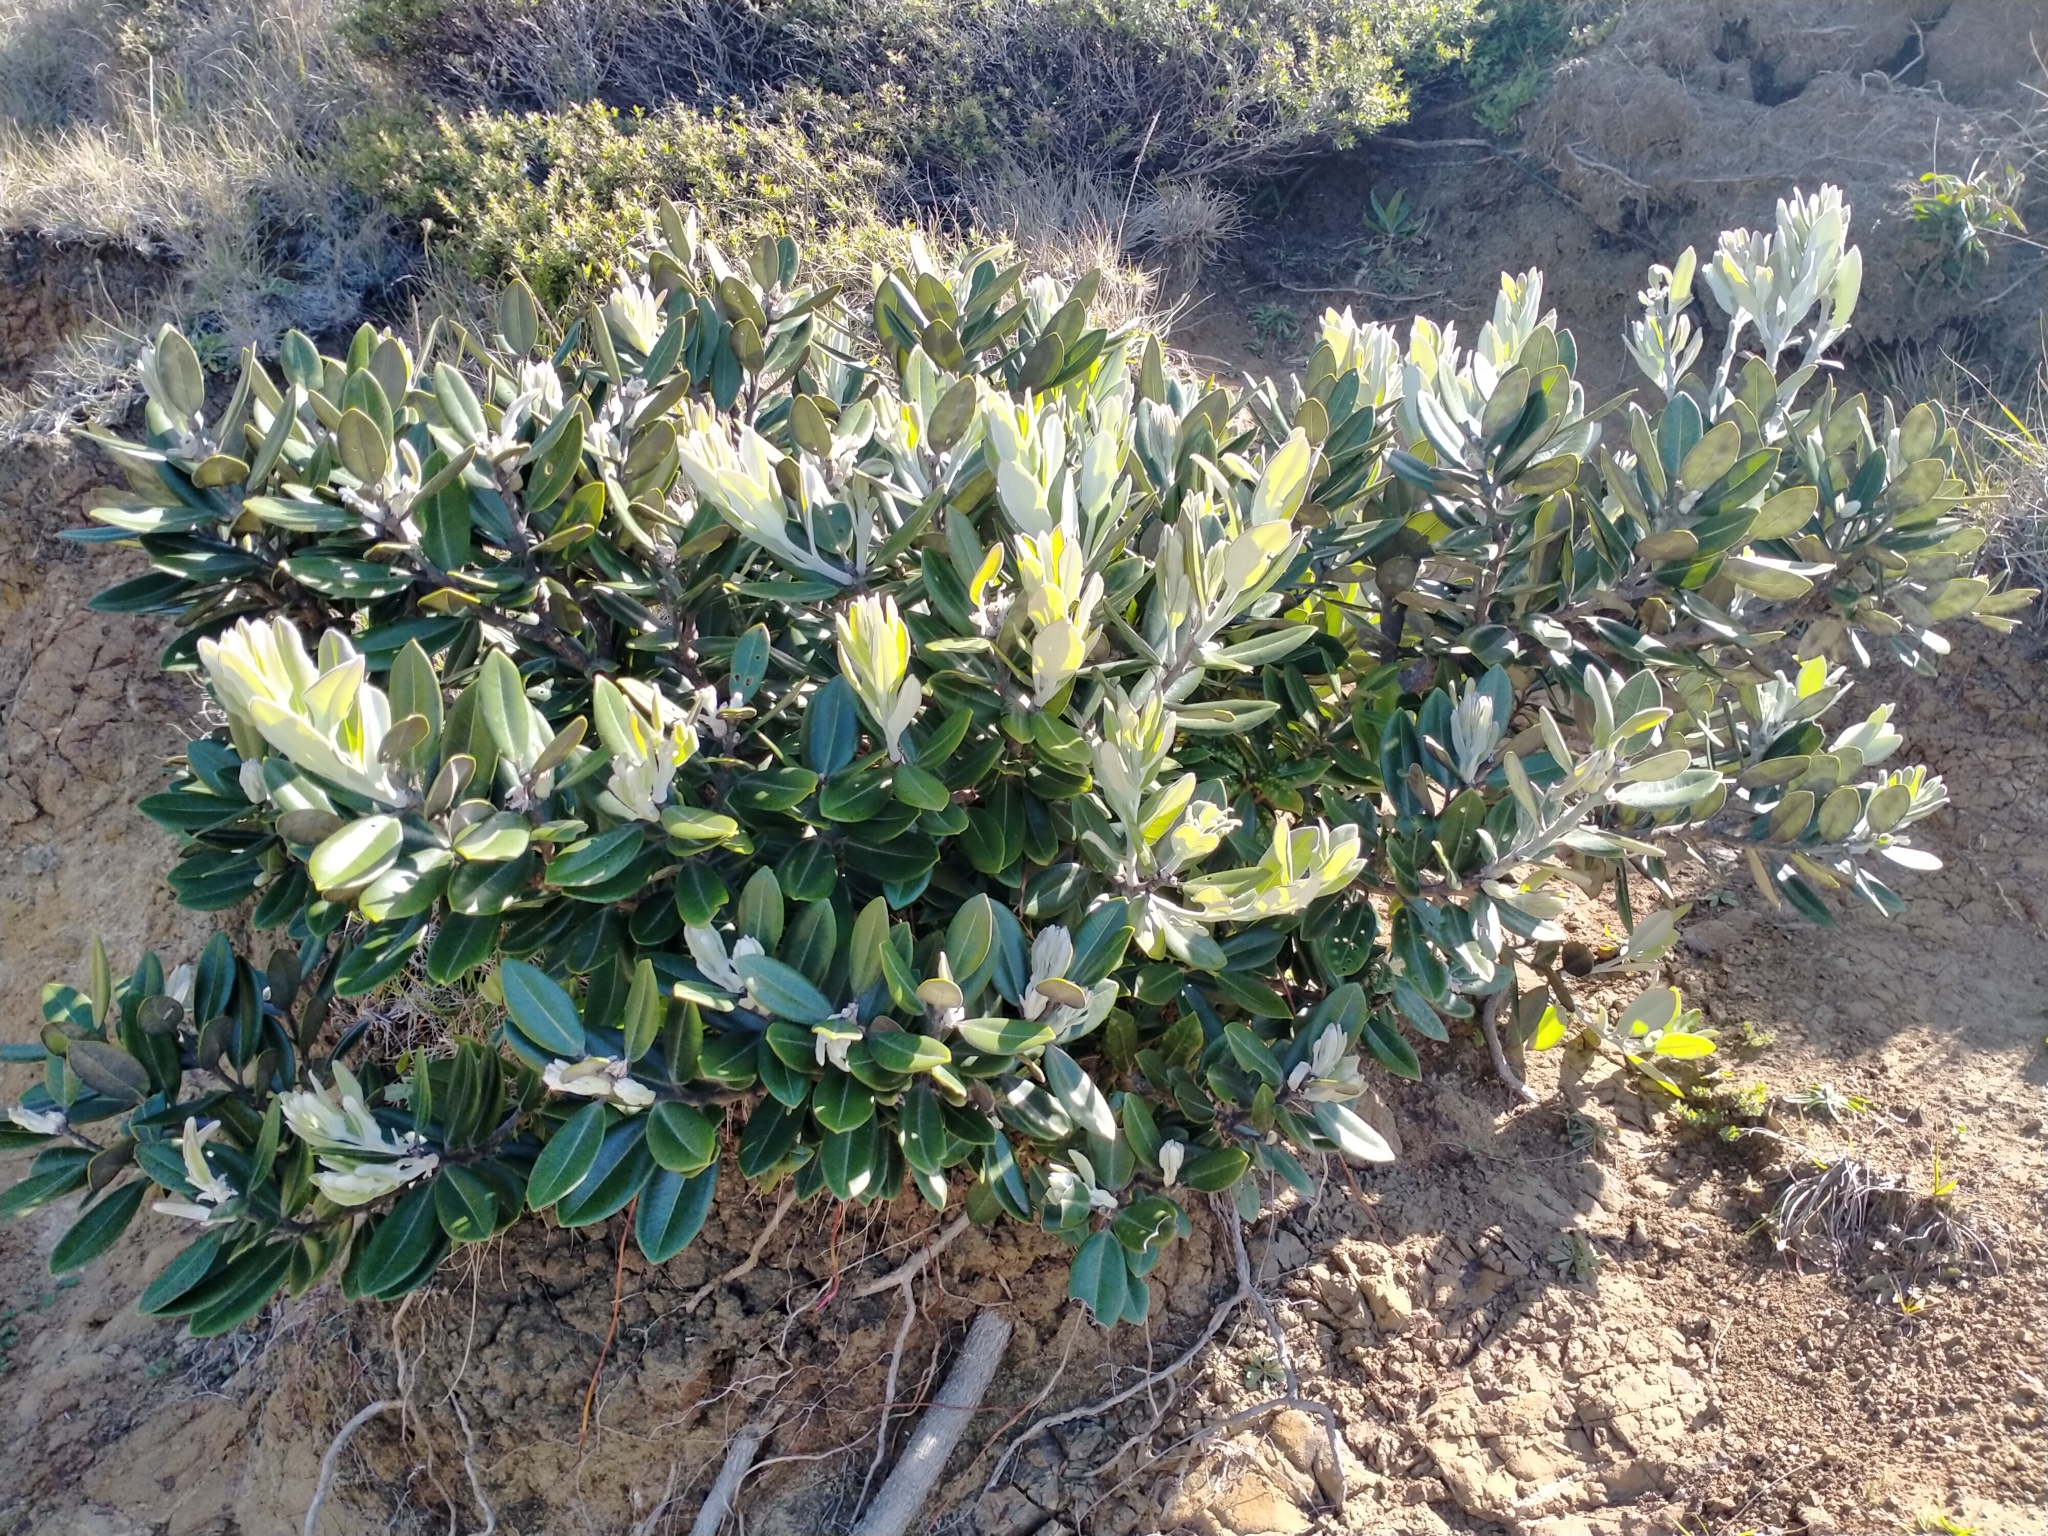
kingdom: Plantae
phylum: Tracheophyta
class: Magnoliopsida
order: Myrtales
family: Myrtaceae
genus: Metrosideros
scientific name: Metrosideros excelsa
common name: New zealand christmastree
